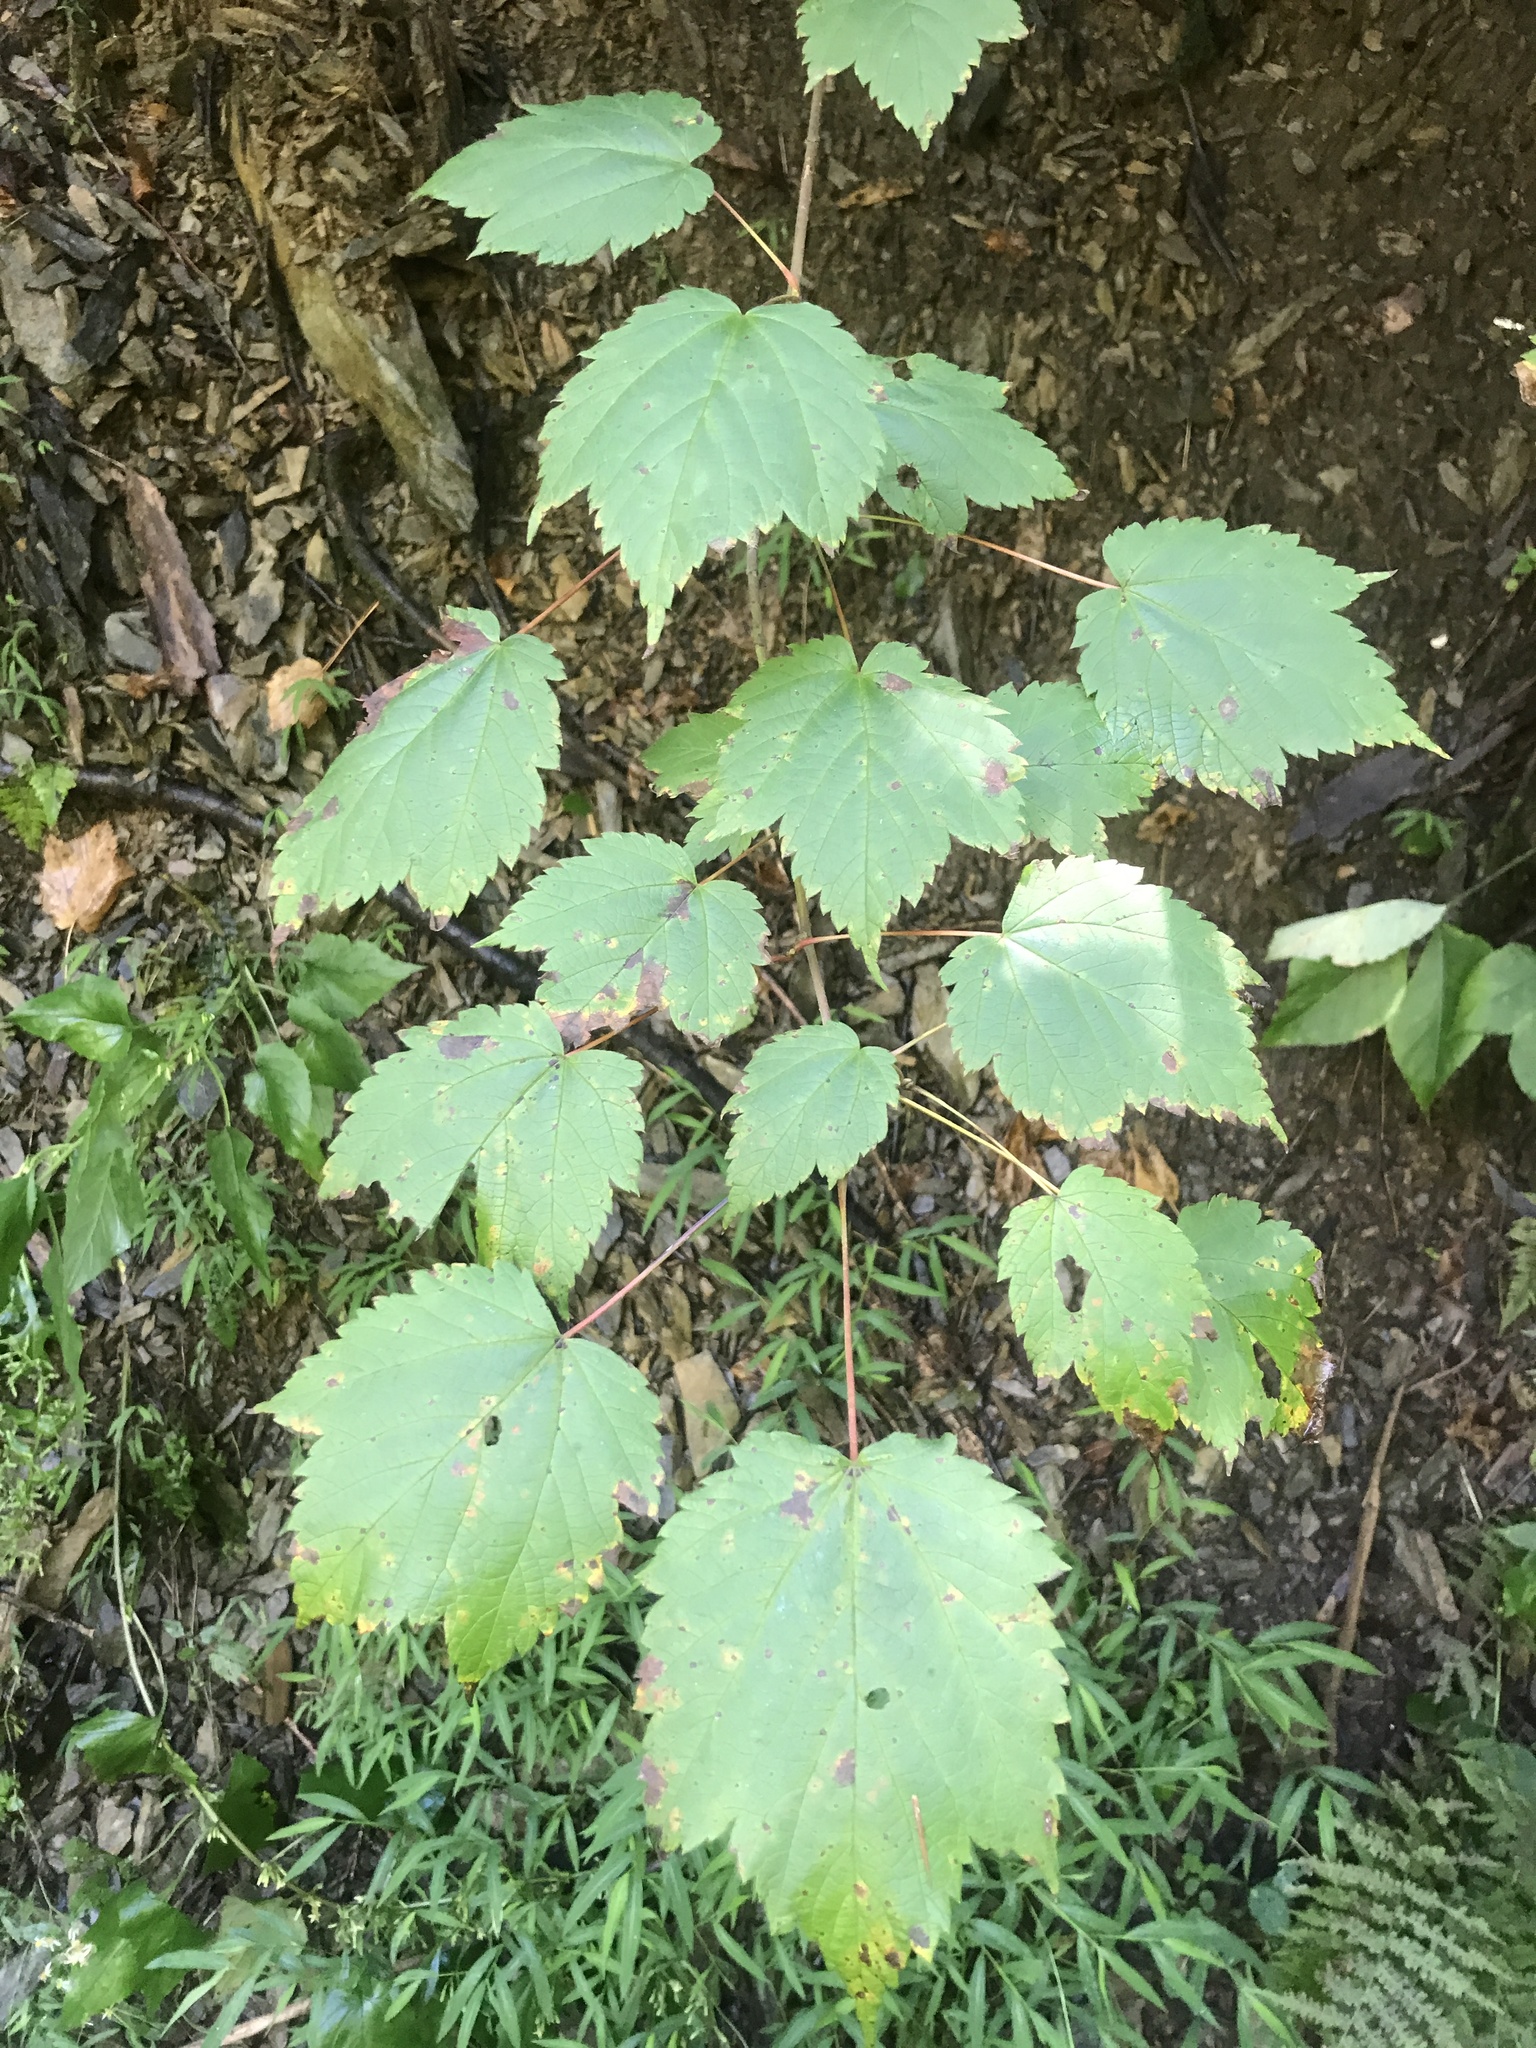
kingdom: Plantae
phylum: Tracheophyta
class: Magnoliopsida
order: Sapindales
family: Sapindaceae
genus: Acer
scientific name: Acer spicatum
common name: Mountain maple
